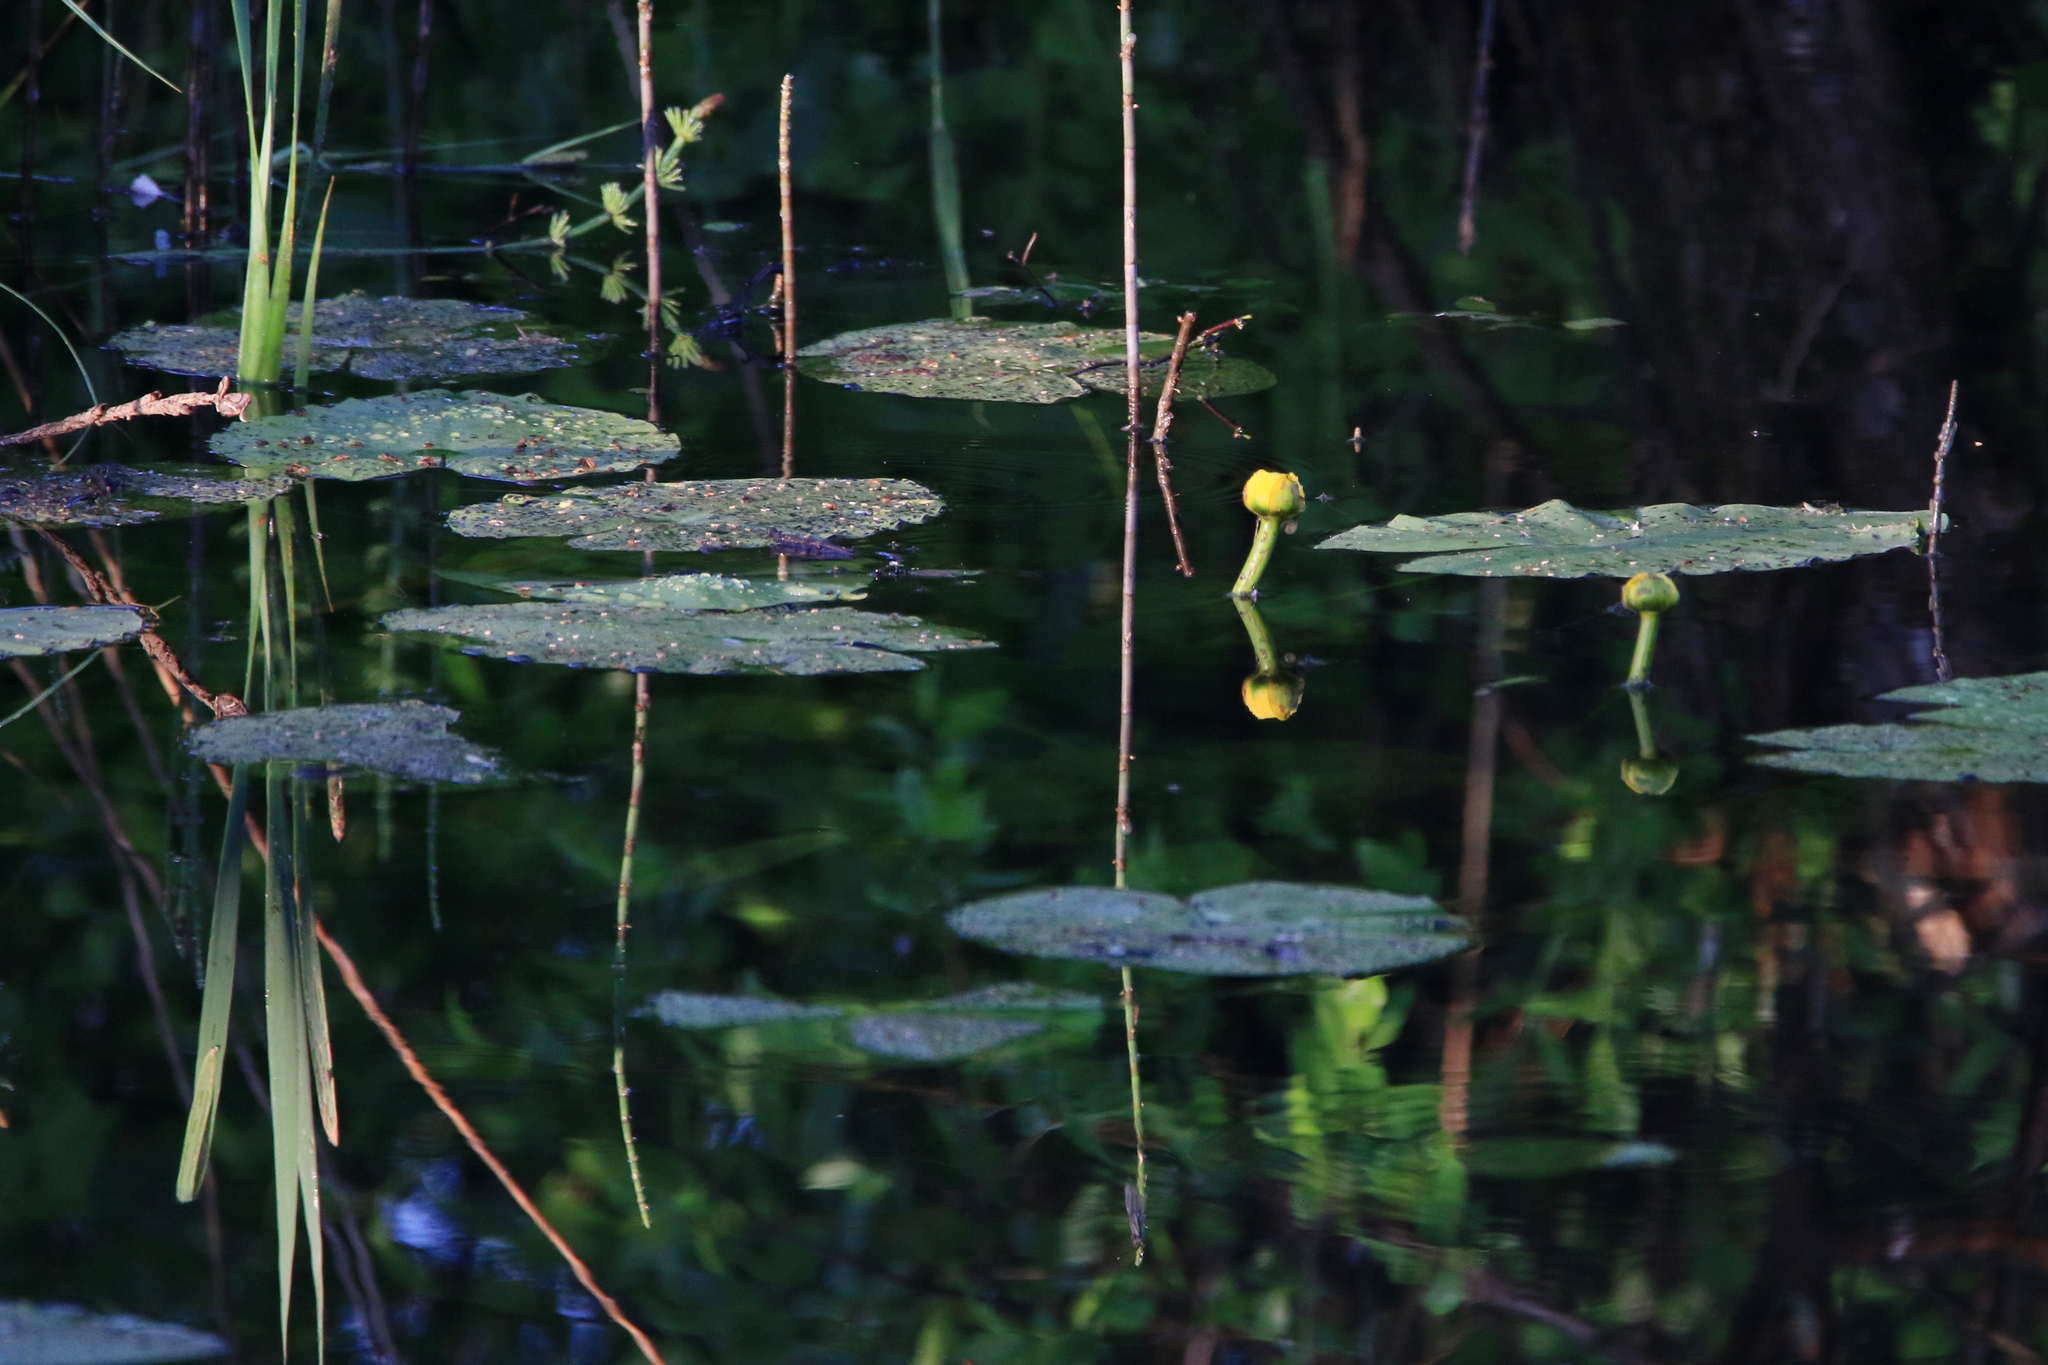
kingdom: Plantae
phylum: Tracheophyta
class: Magnoliopsida
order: Nymphaeales
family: Nymphaeaceae
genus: Nuphar
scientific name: Nuphar lutea
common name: Yellow water-lily
